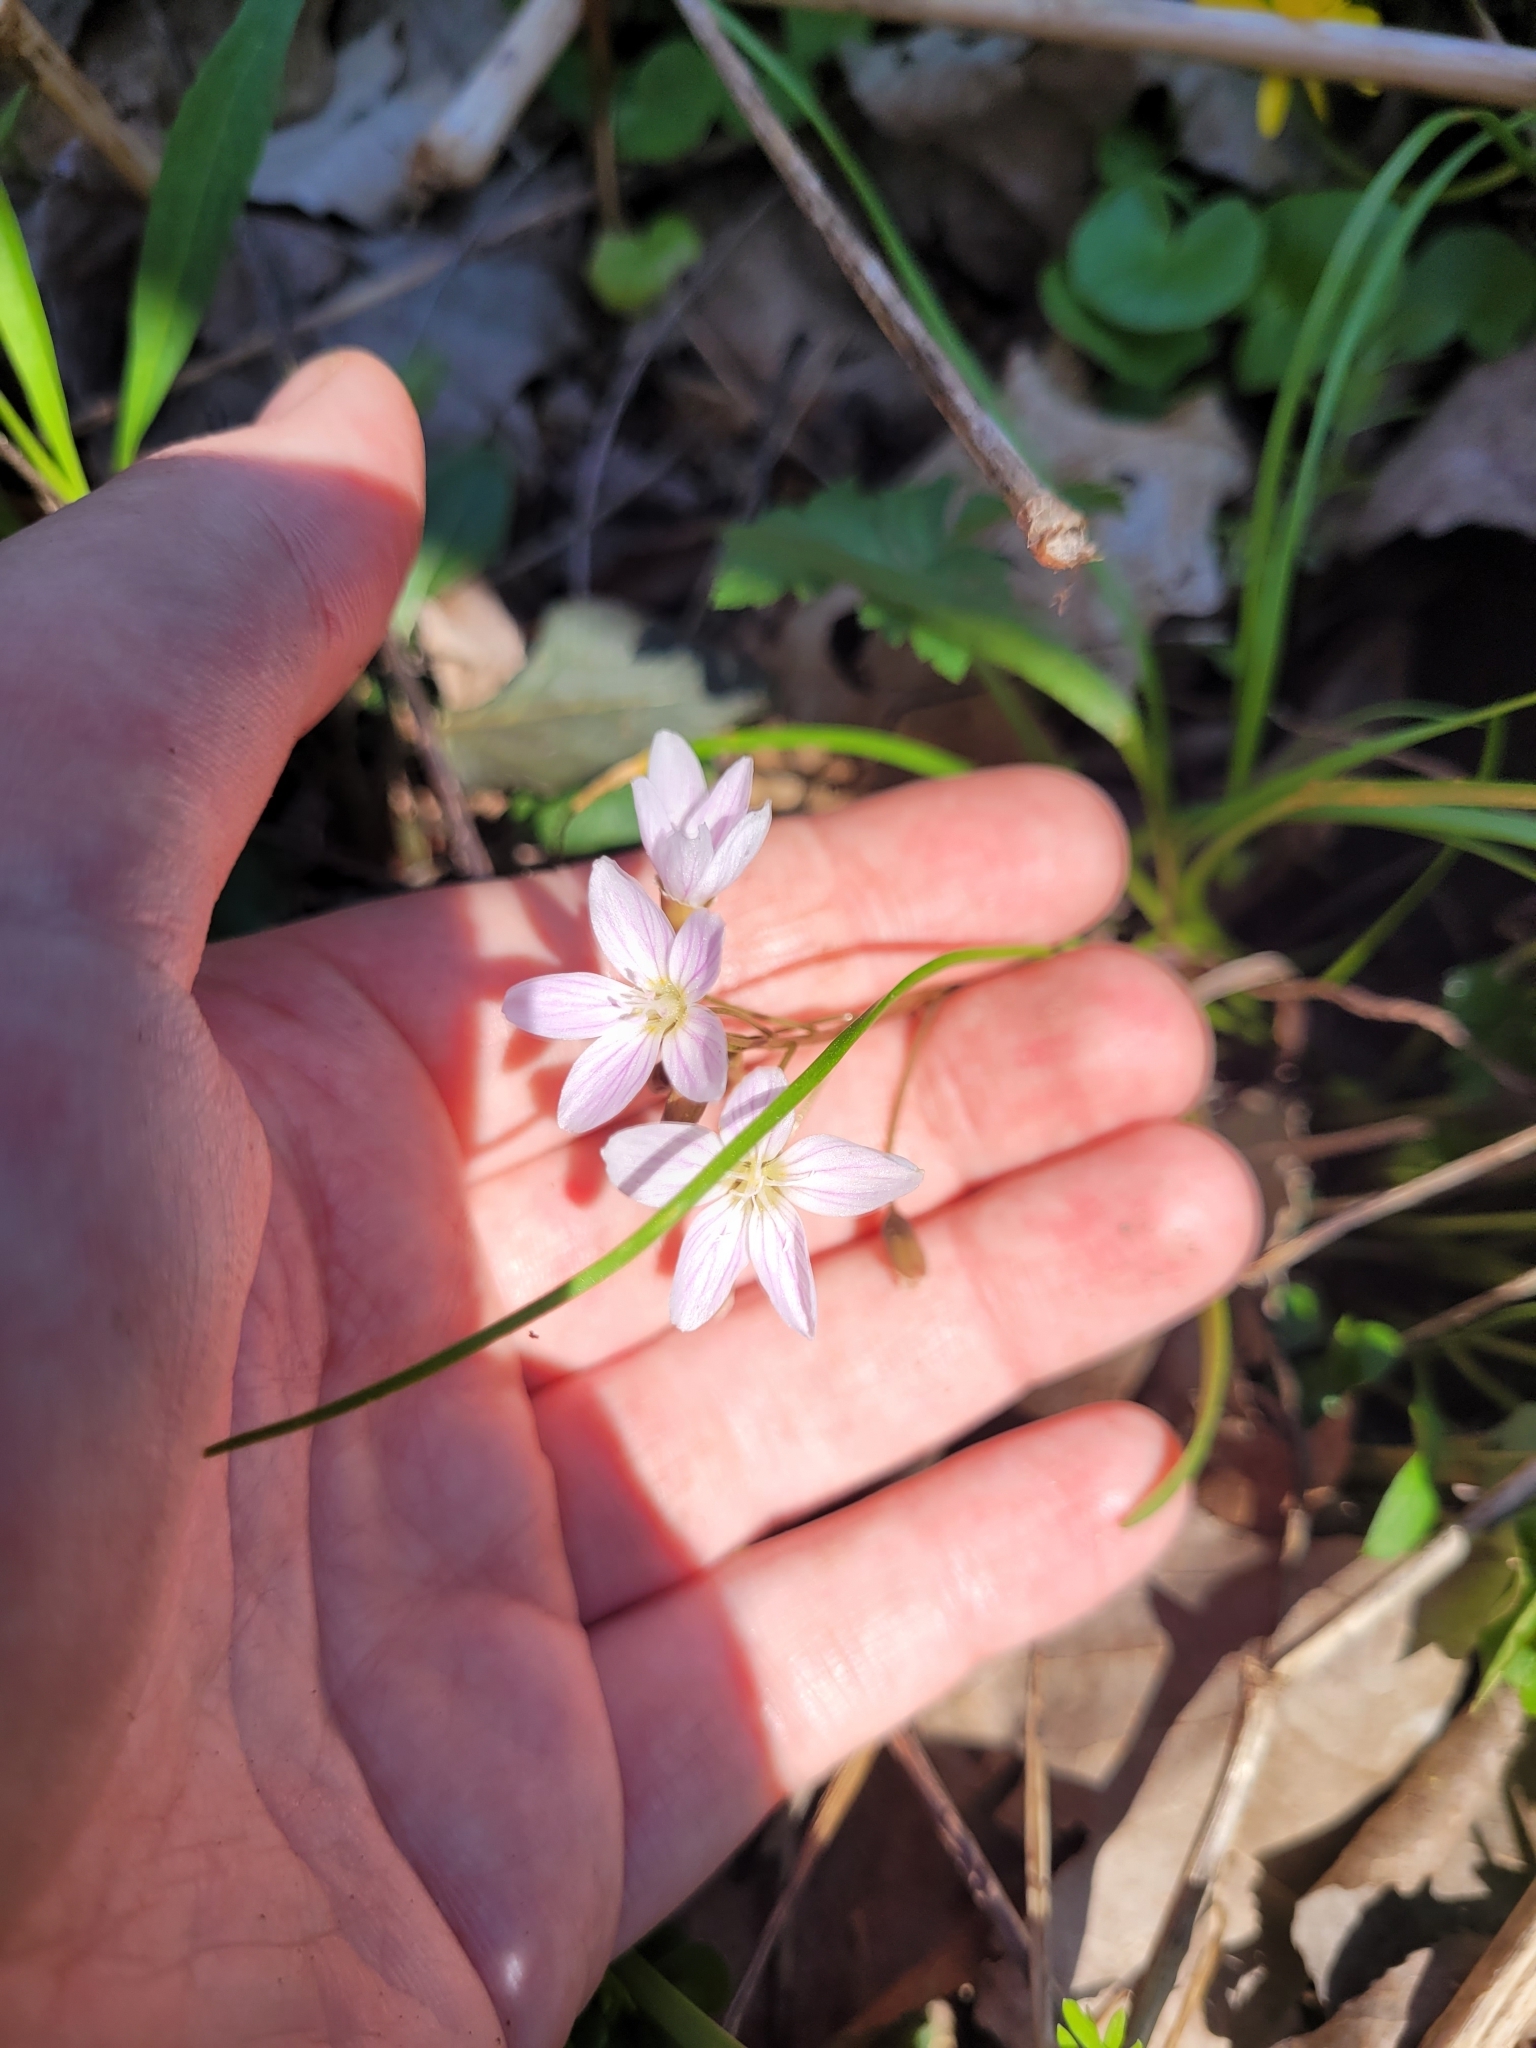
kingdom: Plantae
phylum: Tracheophyta
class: Magnoliopsida
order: Caryophyllales
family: Montiaceae
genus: Claytonia
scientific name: Claytonia virginica
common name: Virginia springbeauty
